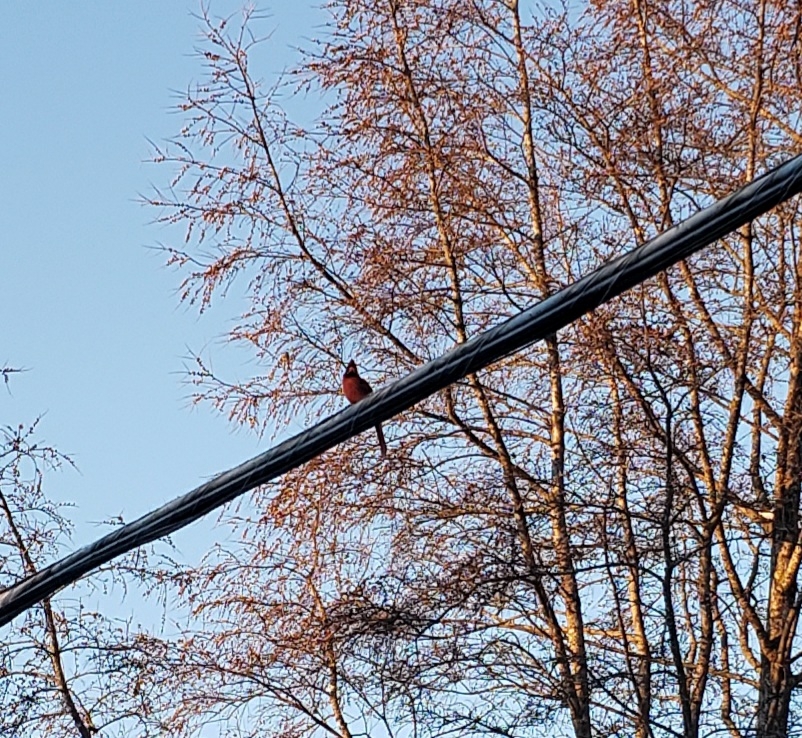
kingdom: Animalia
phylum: Chordata
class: Aves
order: Passeriformes
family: Cardinalidae
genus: Cardinalis
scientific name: Cardinalis cardinalis
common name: Northern cardinal
